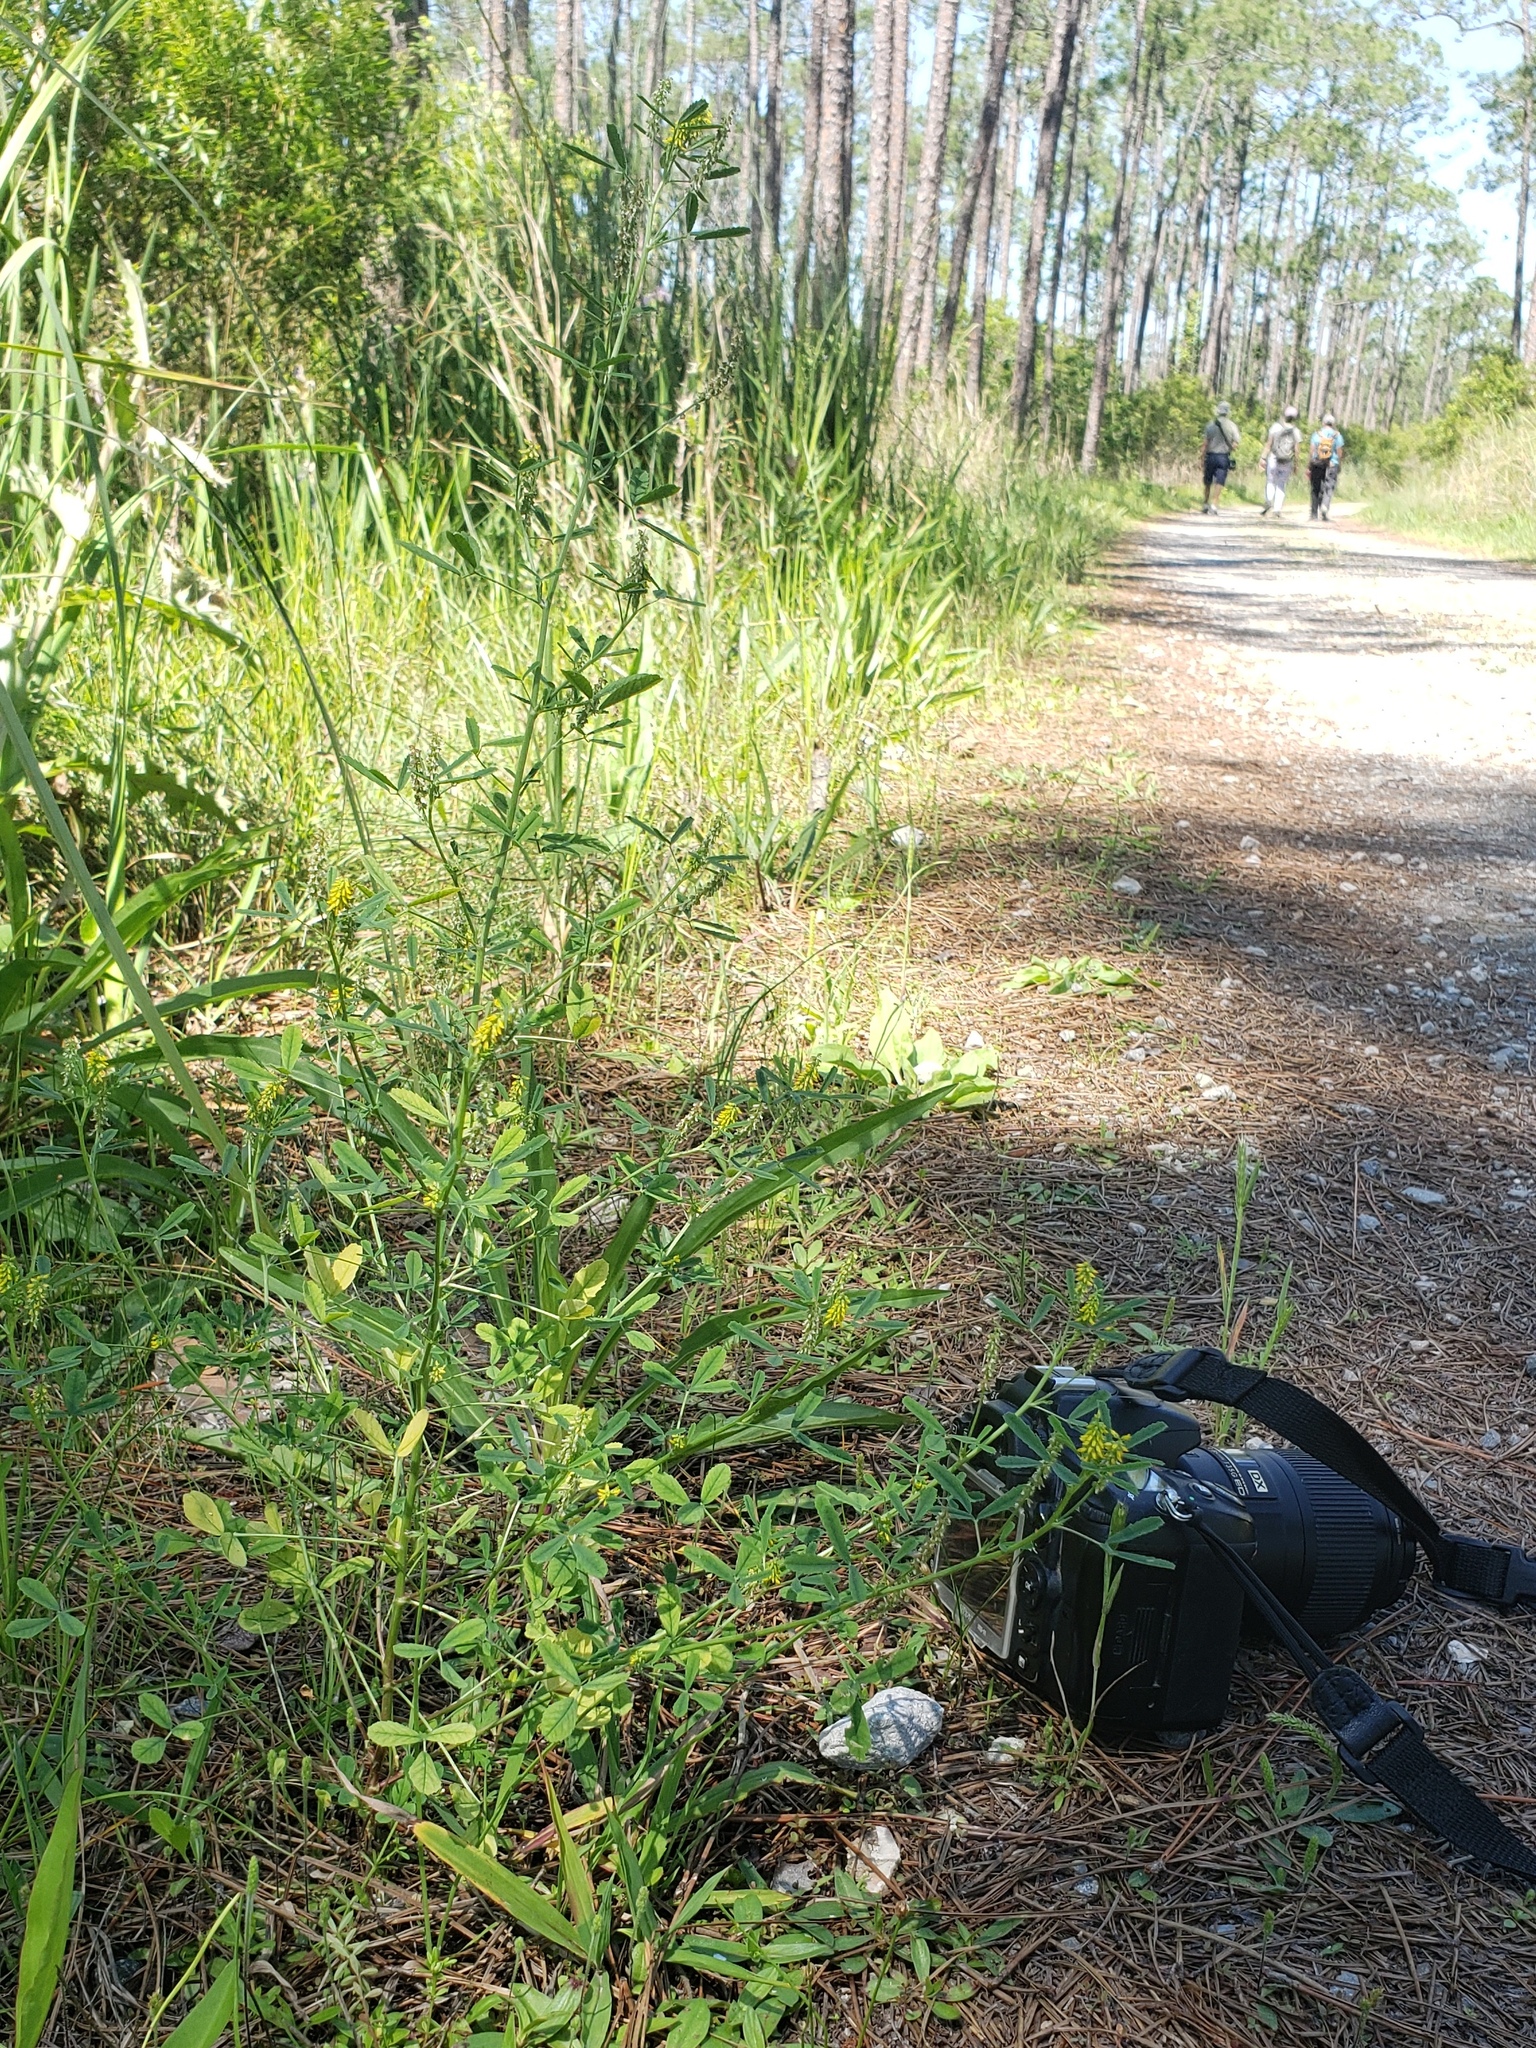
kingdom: Plantae
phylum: Tracheophyta
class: Magnoliopsida
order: Fabales
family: Fabaceae
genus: Melilotus
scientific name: Melilotus indicus
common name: Small melilot
